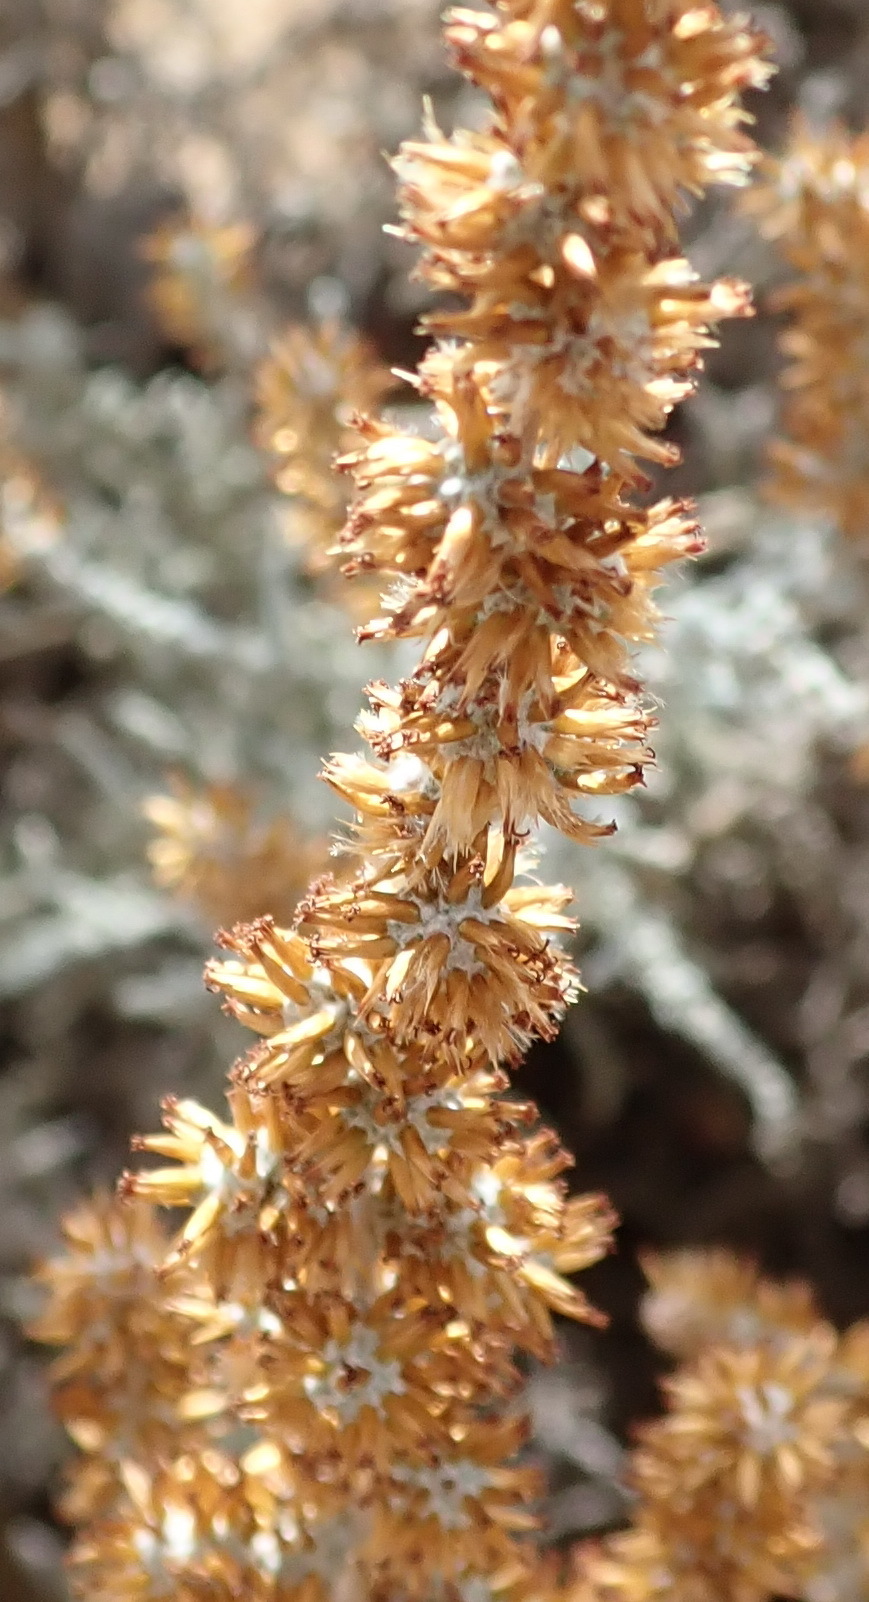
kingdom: Plantae
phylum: Tracheophyta
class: Magnoliopsida
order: Asterales
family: Asteraceae
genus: Seriphium
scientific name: Seriphium plumosum
